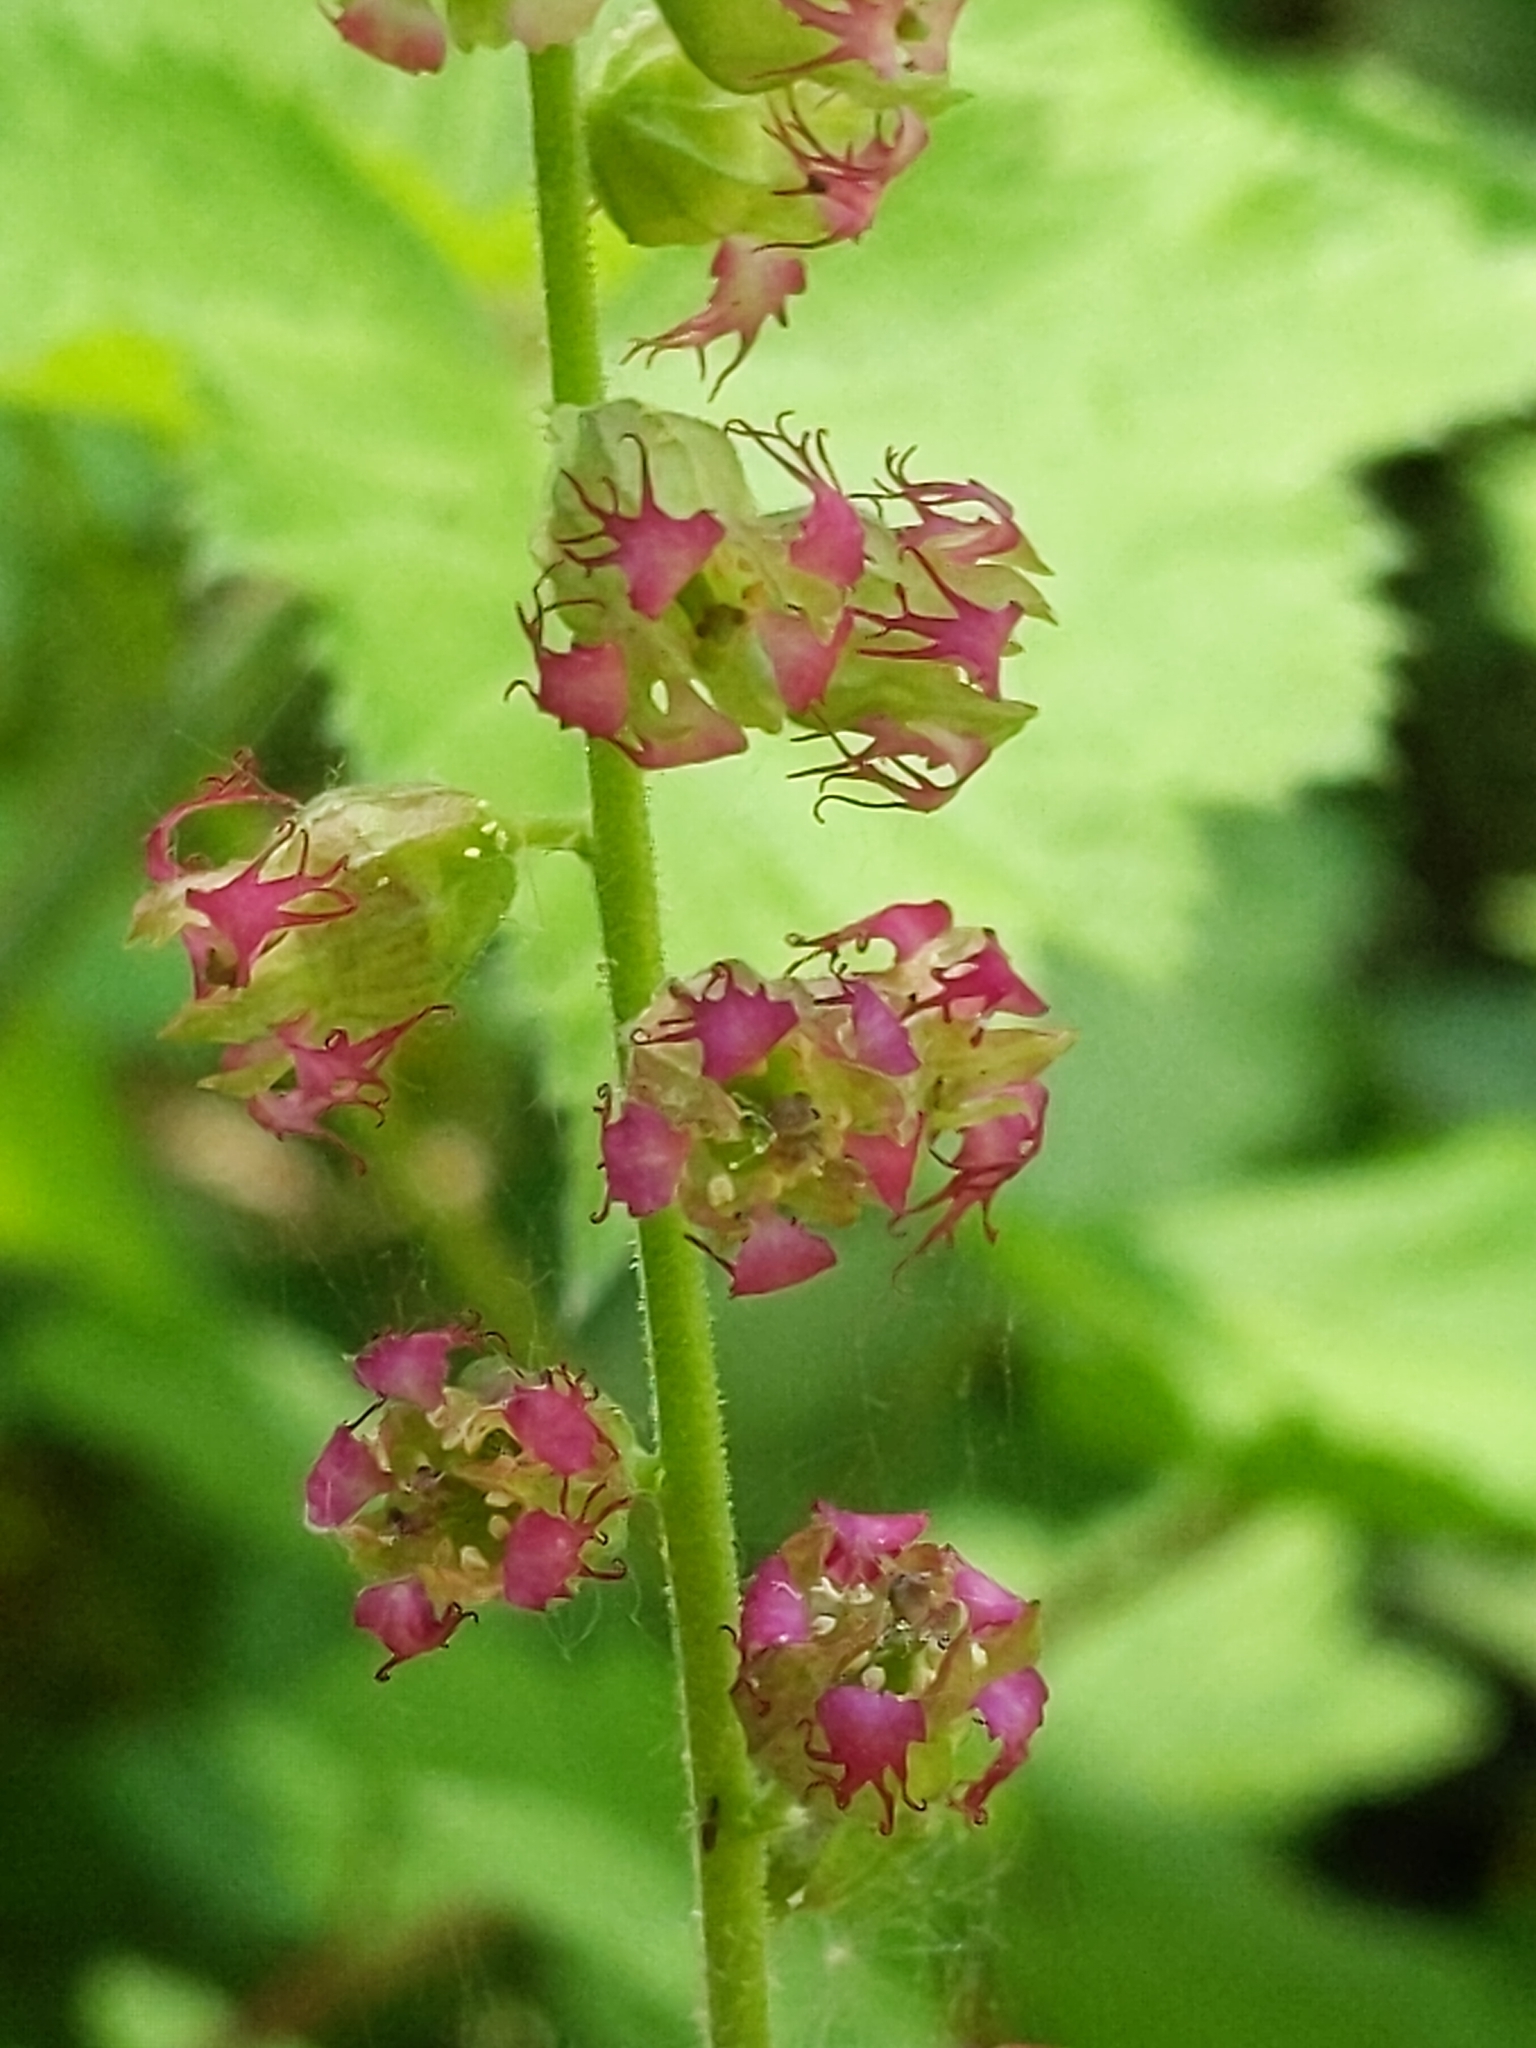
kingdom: Plantae
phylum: Tracheophyta
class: Magnoliopsida
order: Saxifragales
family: Saxifragaceae
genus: Tellima
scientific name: Tellima grandiflora
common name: Fringecups
